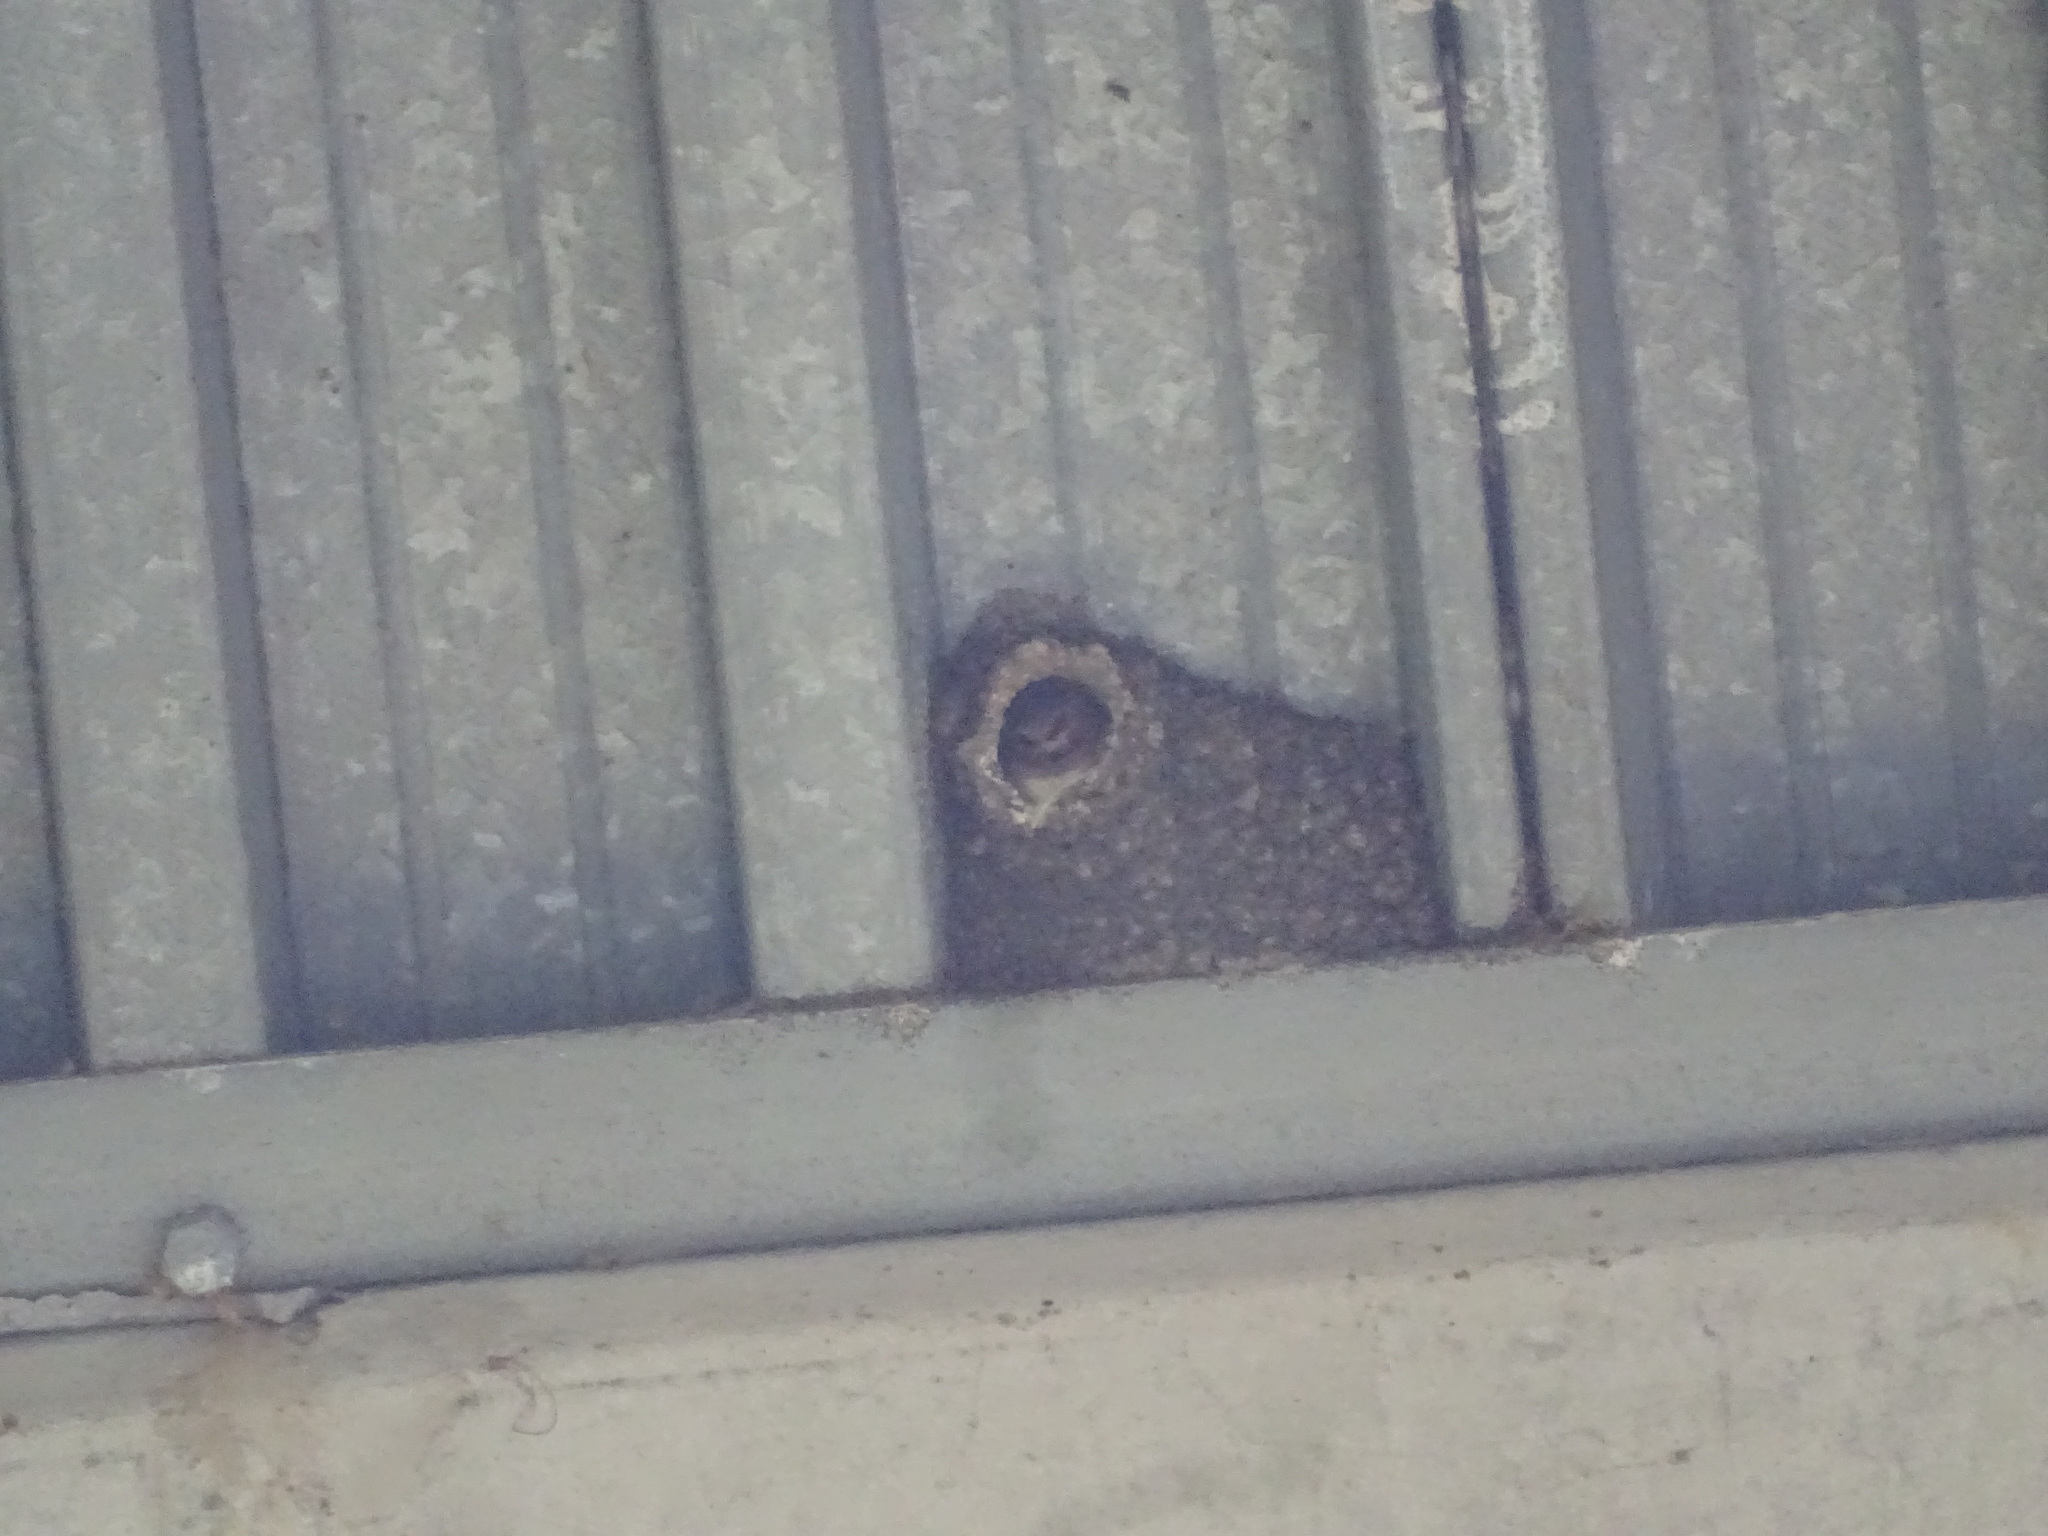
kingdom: Animalia
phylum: Chordata
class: Aves
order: Passeriformes
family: Hirundinidae
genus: Petrochelidon
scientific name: Petrochelidon pyrrhonota
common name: American cliff swallow
